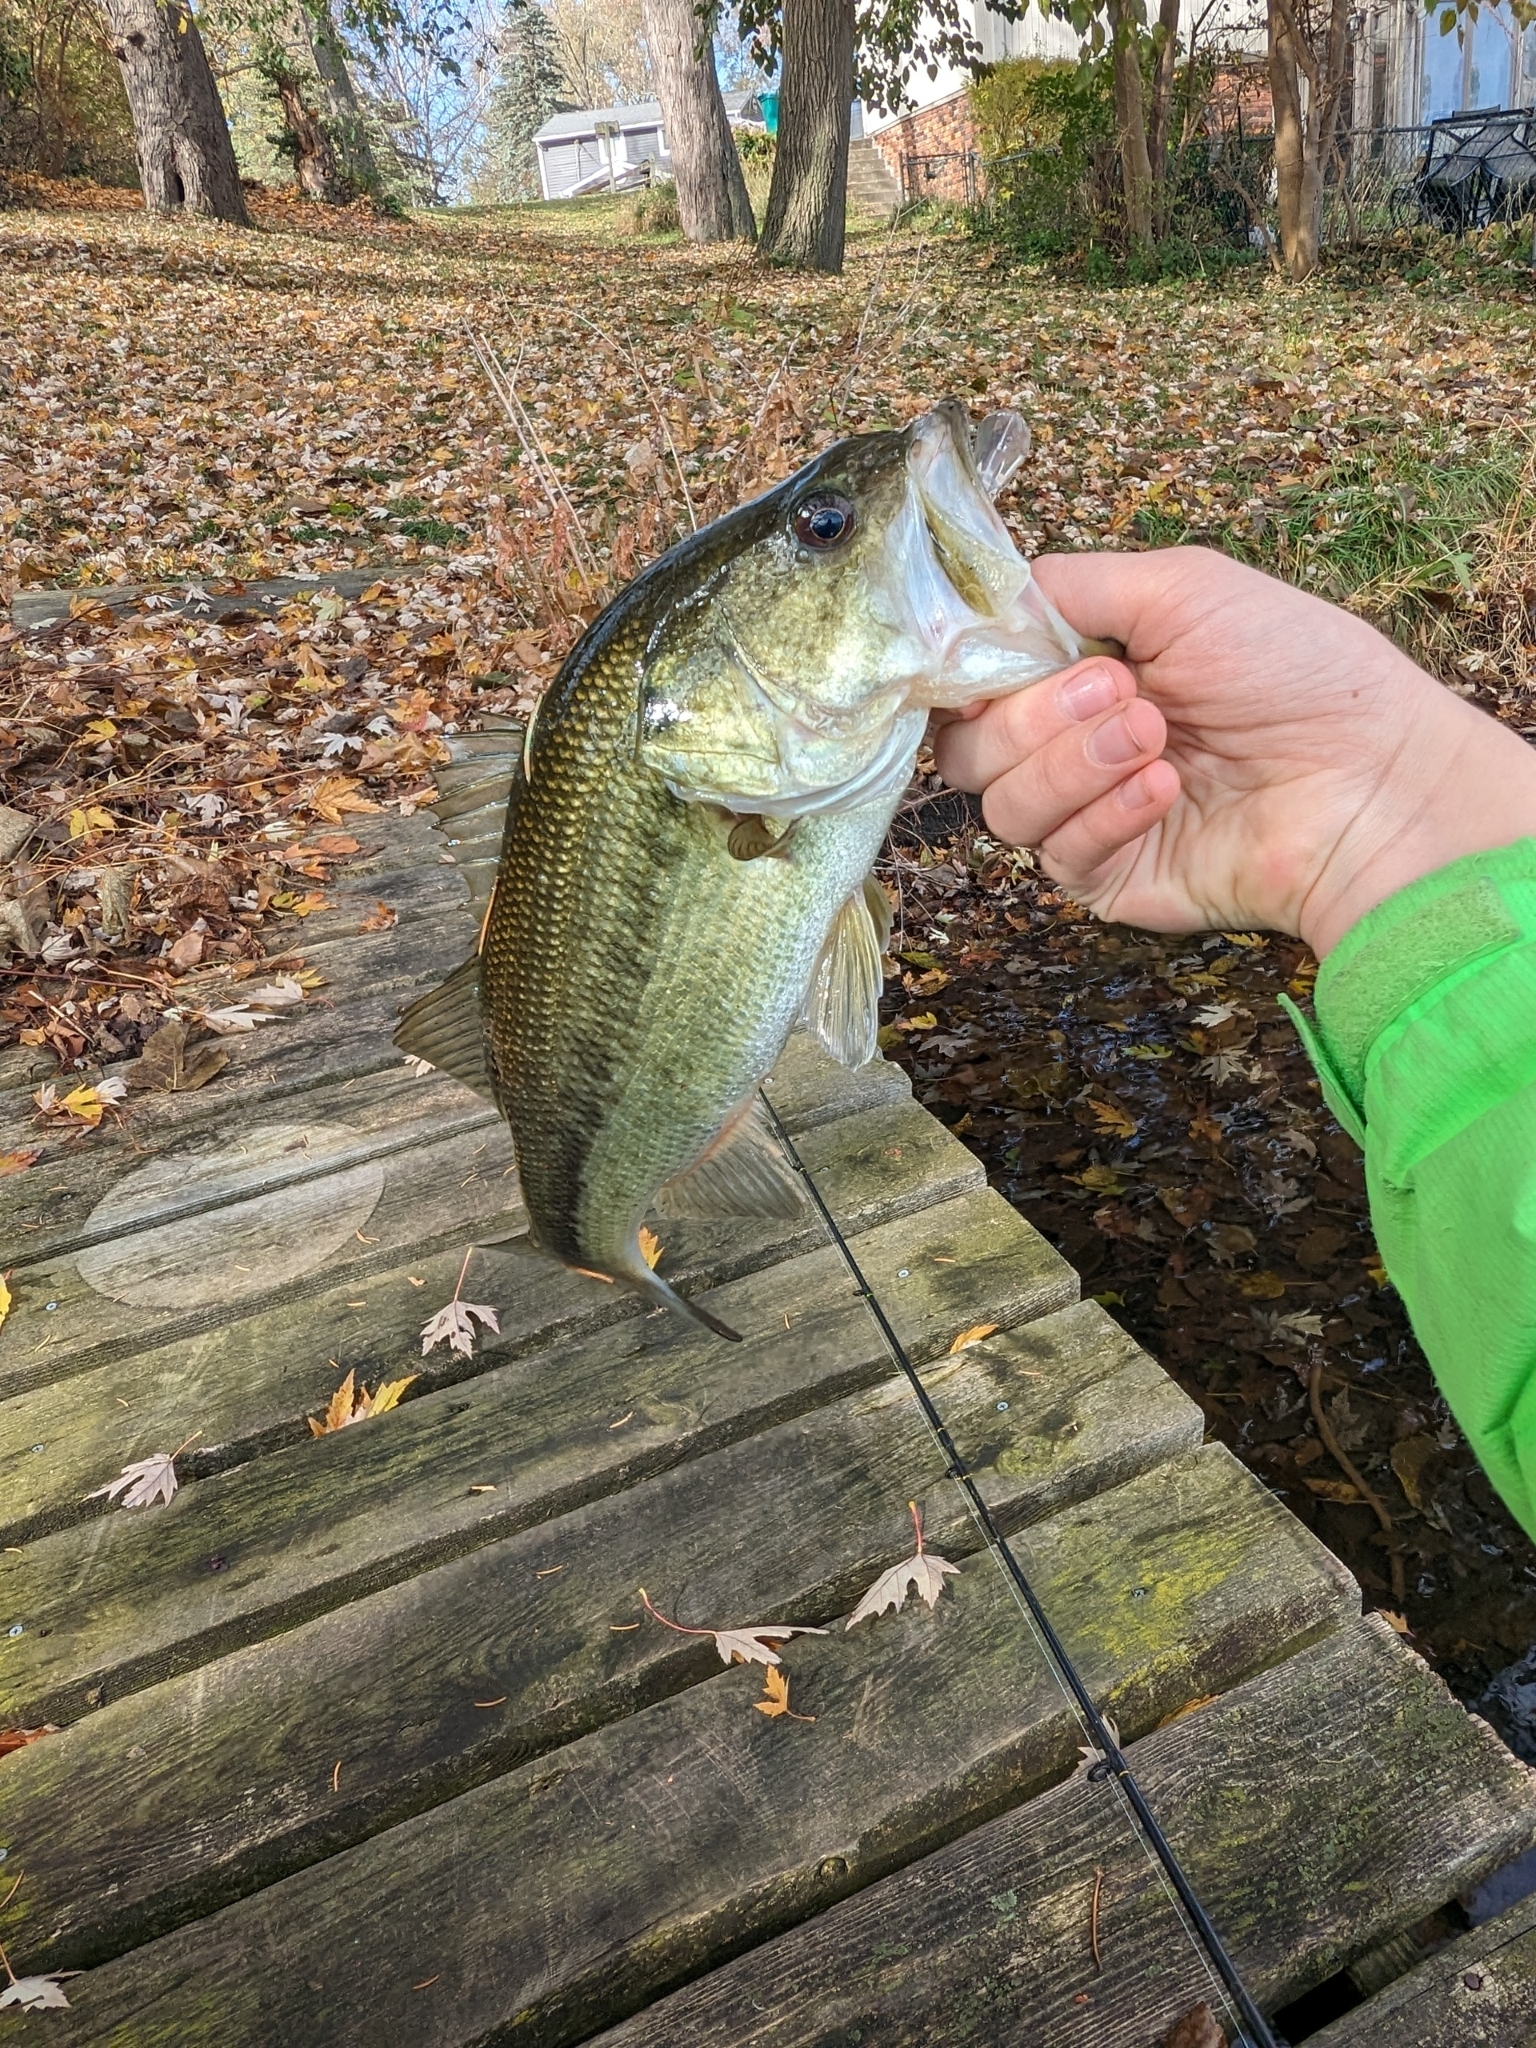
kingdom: Animalia
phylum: Chordata
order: Perciformes
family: Centrarchidae
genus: Micropterus
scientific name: Micropterus
